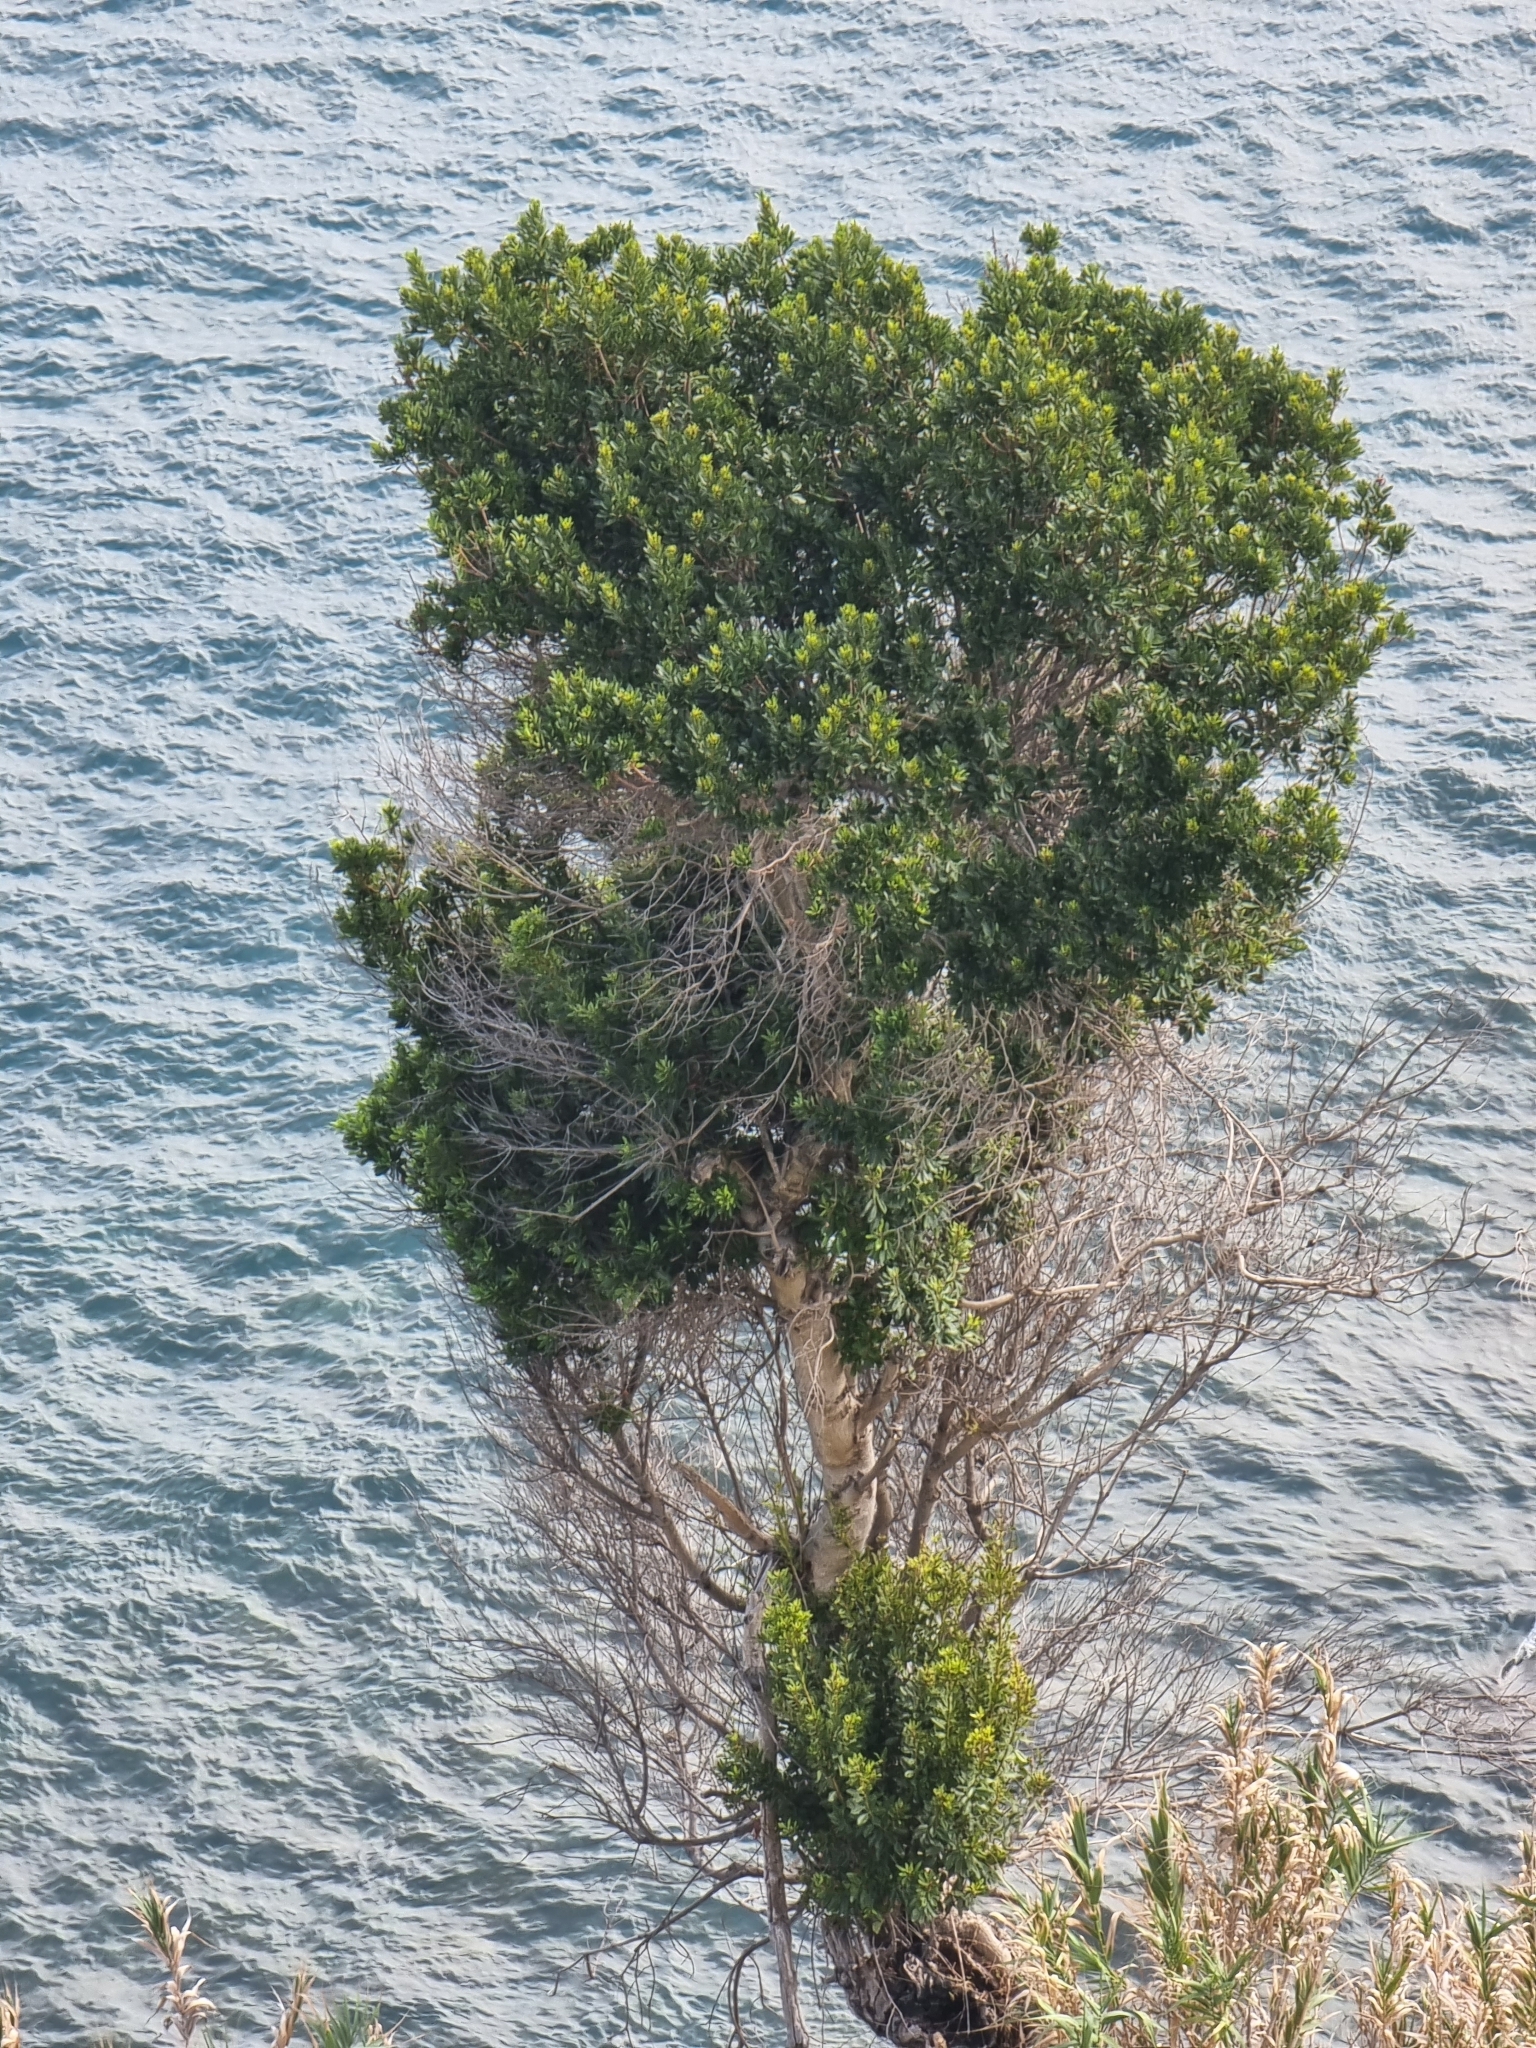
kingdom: Plantae
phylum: Tracheophyta
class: Magnoliopsida
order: Fagales
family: Myricaceae
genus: Morella
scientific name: Morella faya
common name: Firetree
